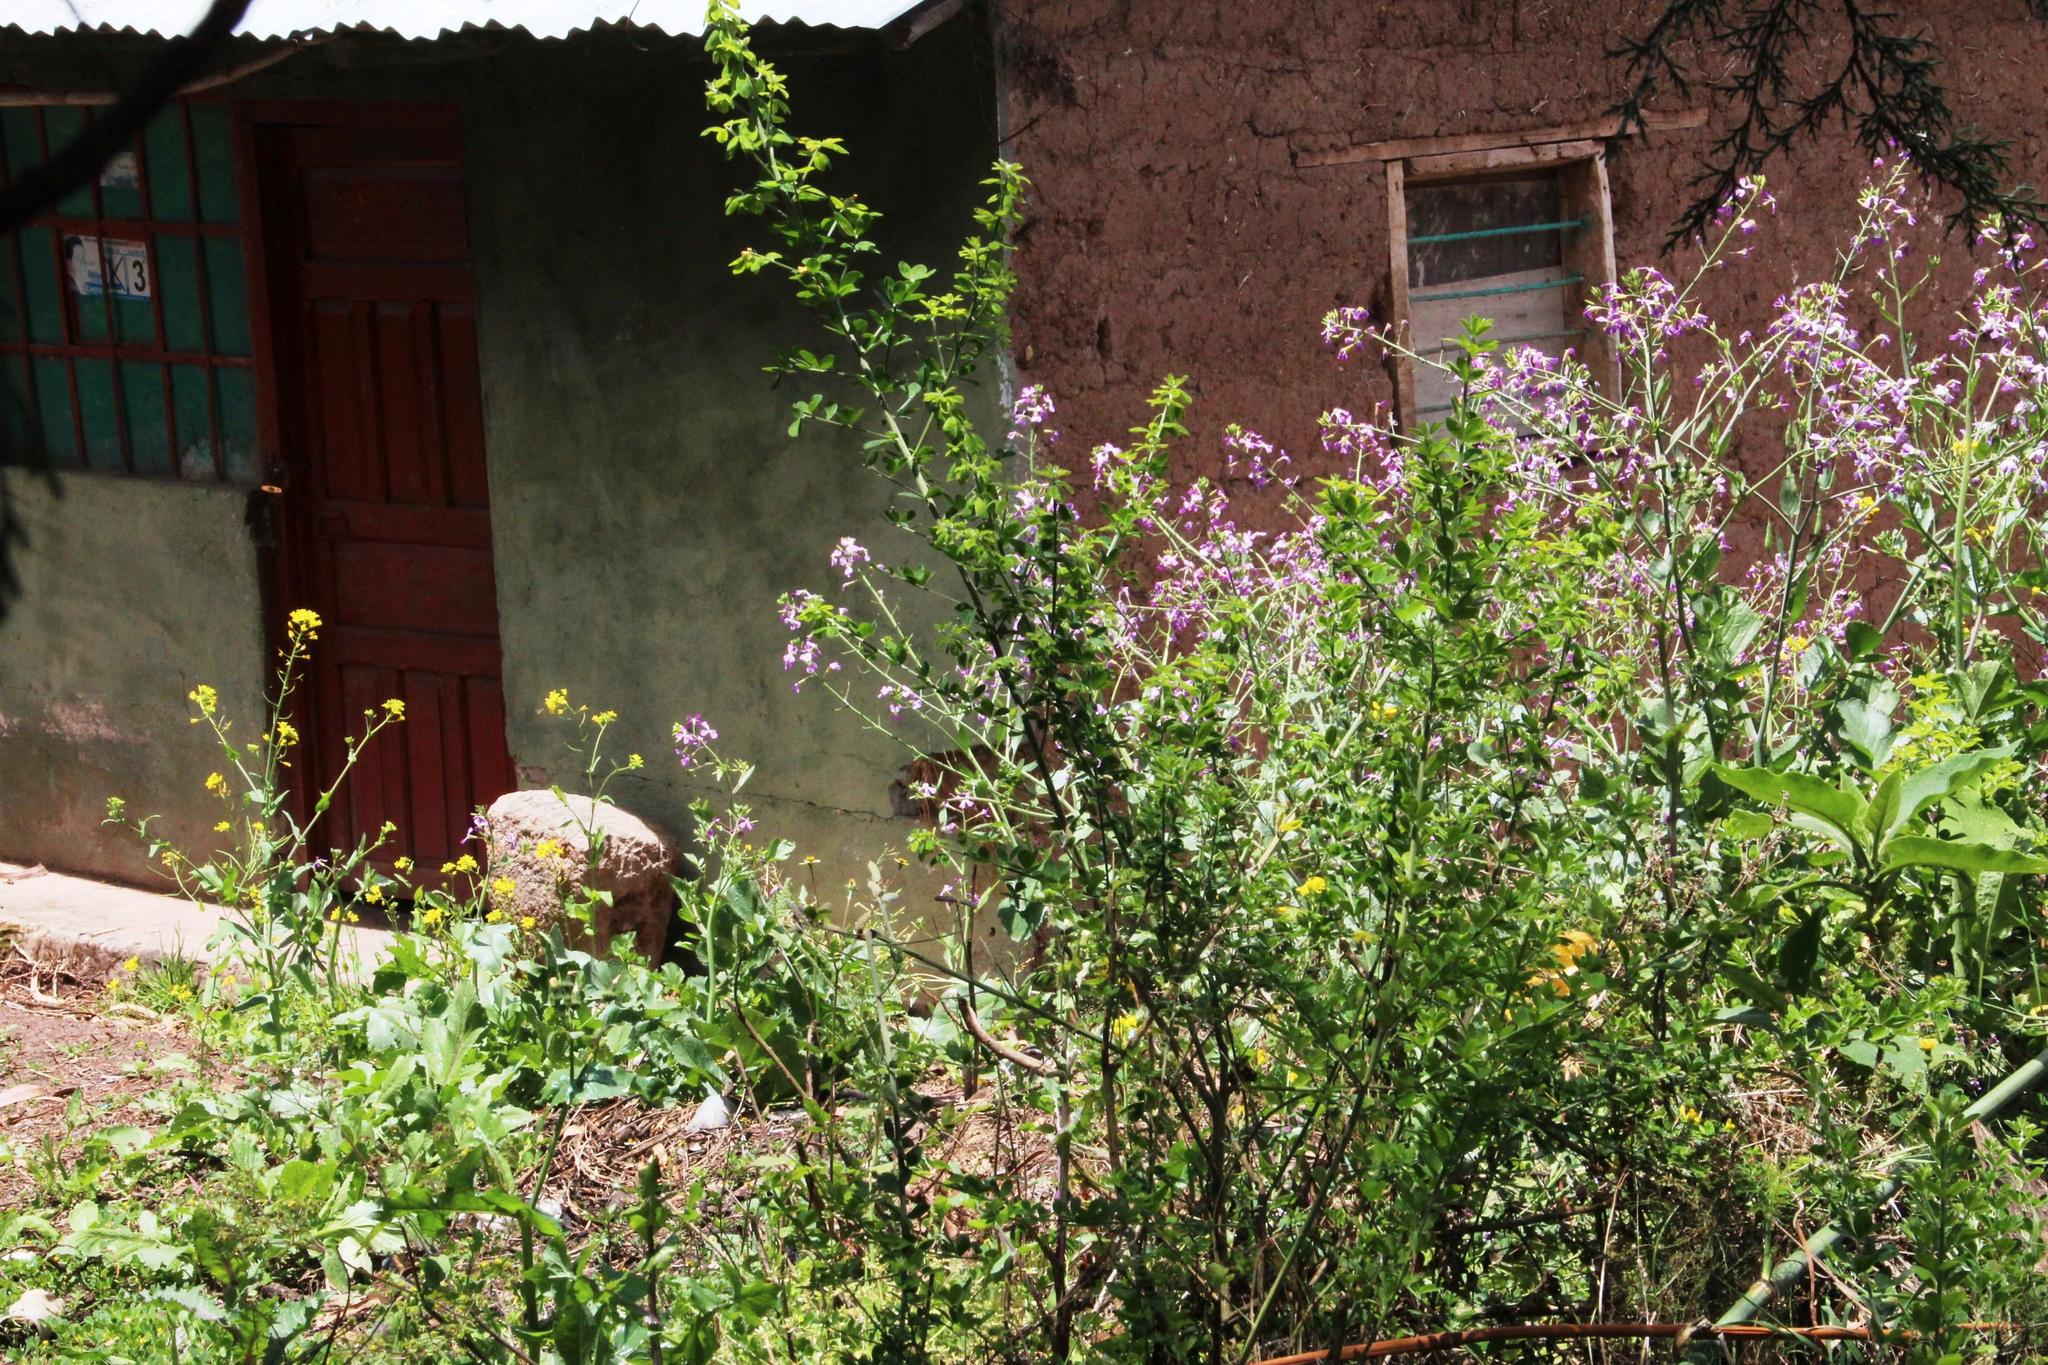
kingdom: Plantae
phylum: Tracheophyta
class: Magnoliopsida
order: Brassicales
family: Brassicaceae
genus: Raphanus
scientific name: Raphanus sativus
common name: Cultivated radish
